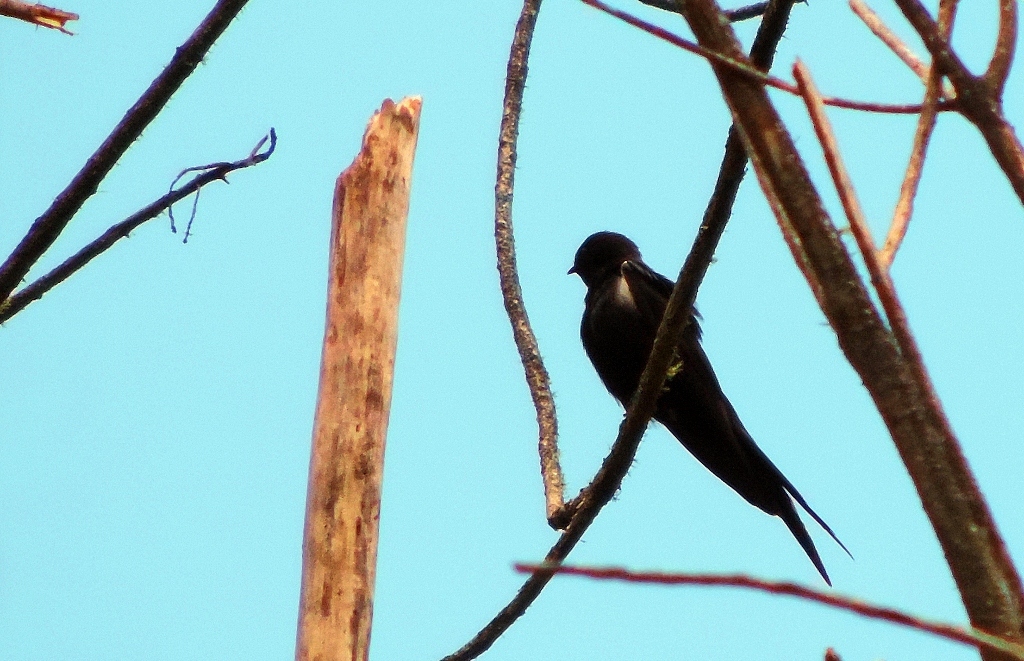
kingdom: Animalia
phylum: Chordata
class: Aves
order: Passeriformes
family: Hirundinidae
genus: Psalidoprocne
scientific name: Psalidoprocne pristoptera
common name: Black saw-wing
